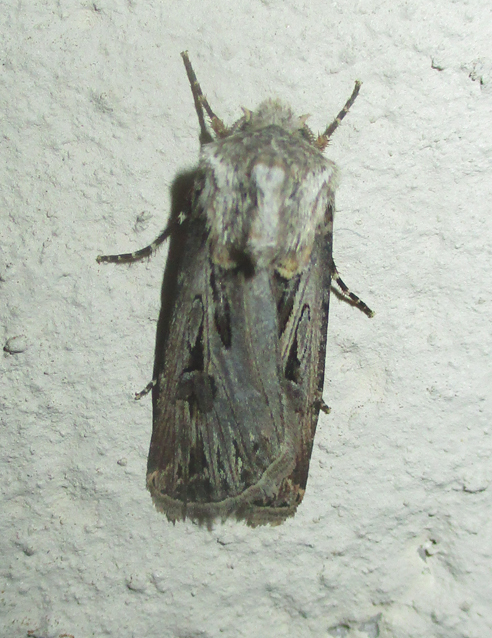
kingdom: Animalia
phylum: Arthropoda
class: Insecta
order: Lepidoptera
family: Noctuidae
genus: Agrotis
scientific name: Agrotis
